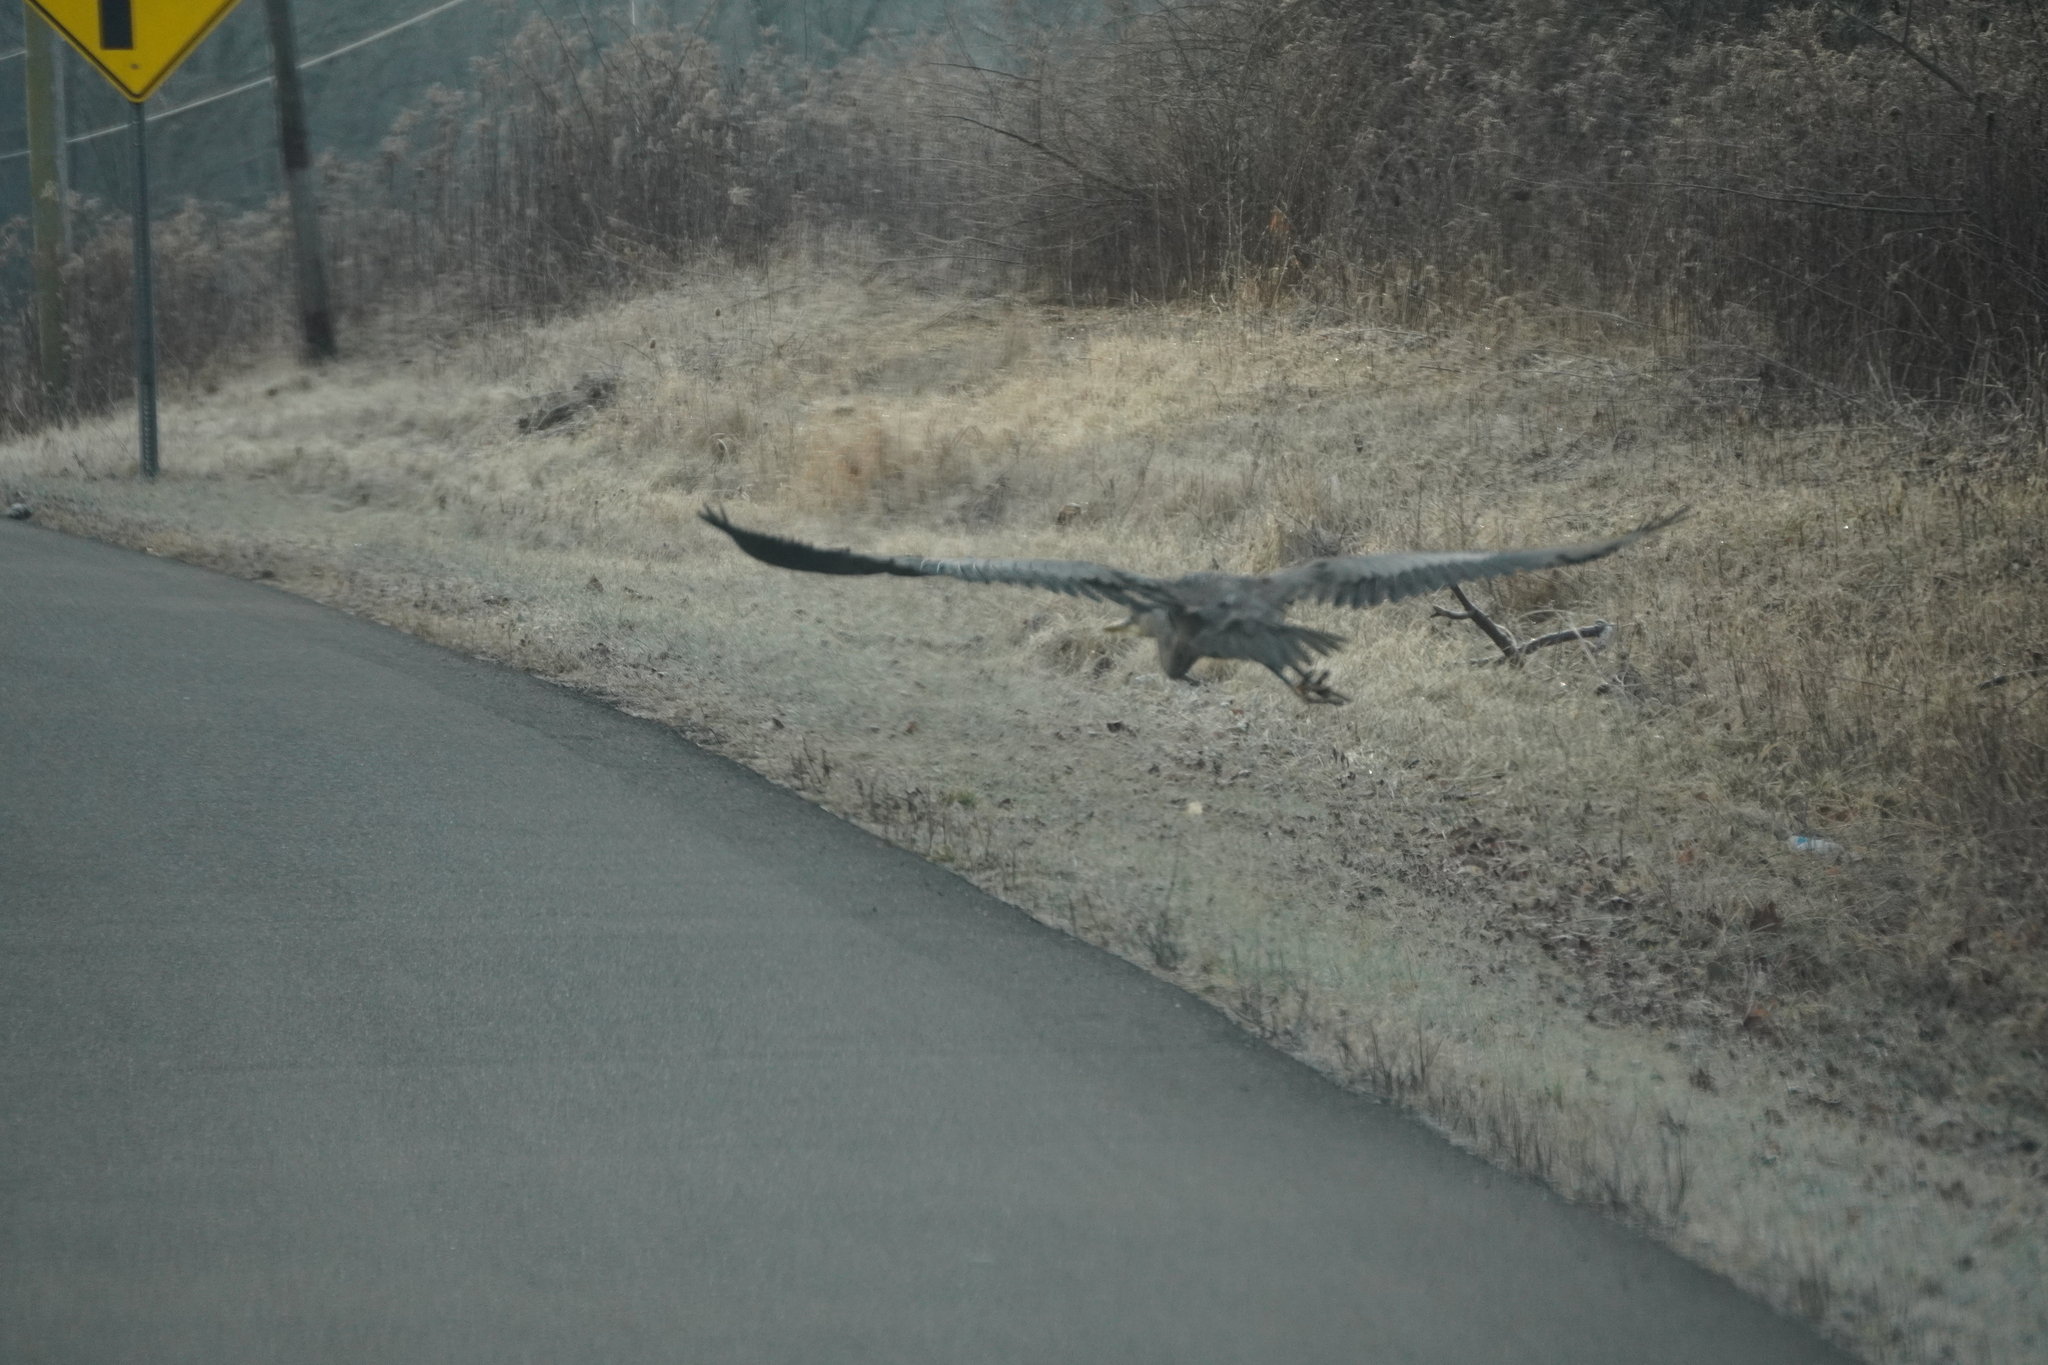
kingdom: Animalia
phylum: Chordata
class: Aves
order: Pelecaniformes
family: Ardeidae
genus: Ardea
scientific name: Ardea herodias
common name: Great blue heron
